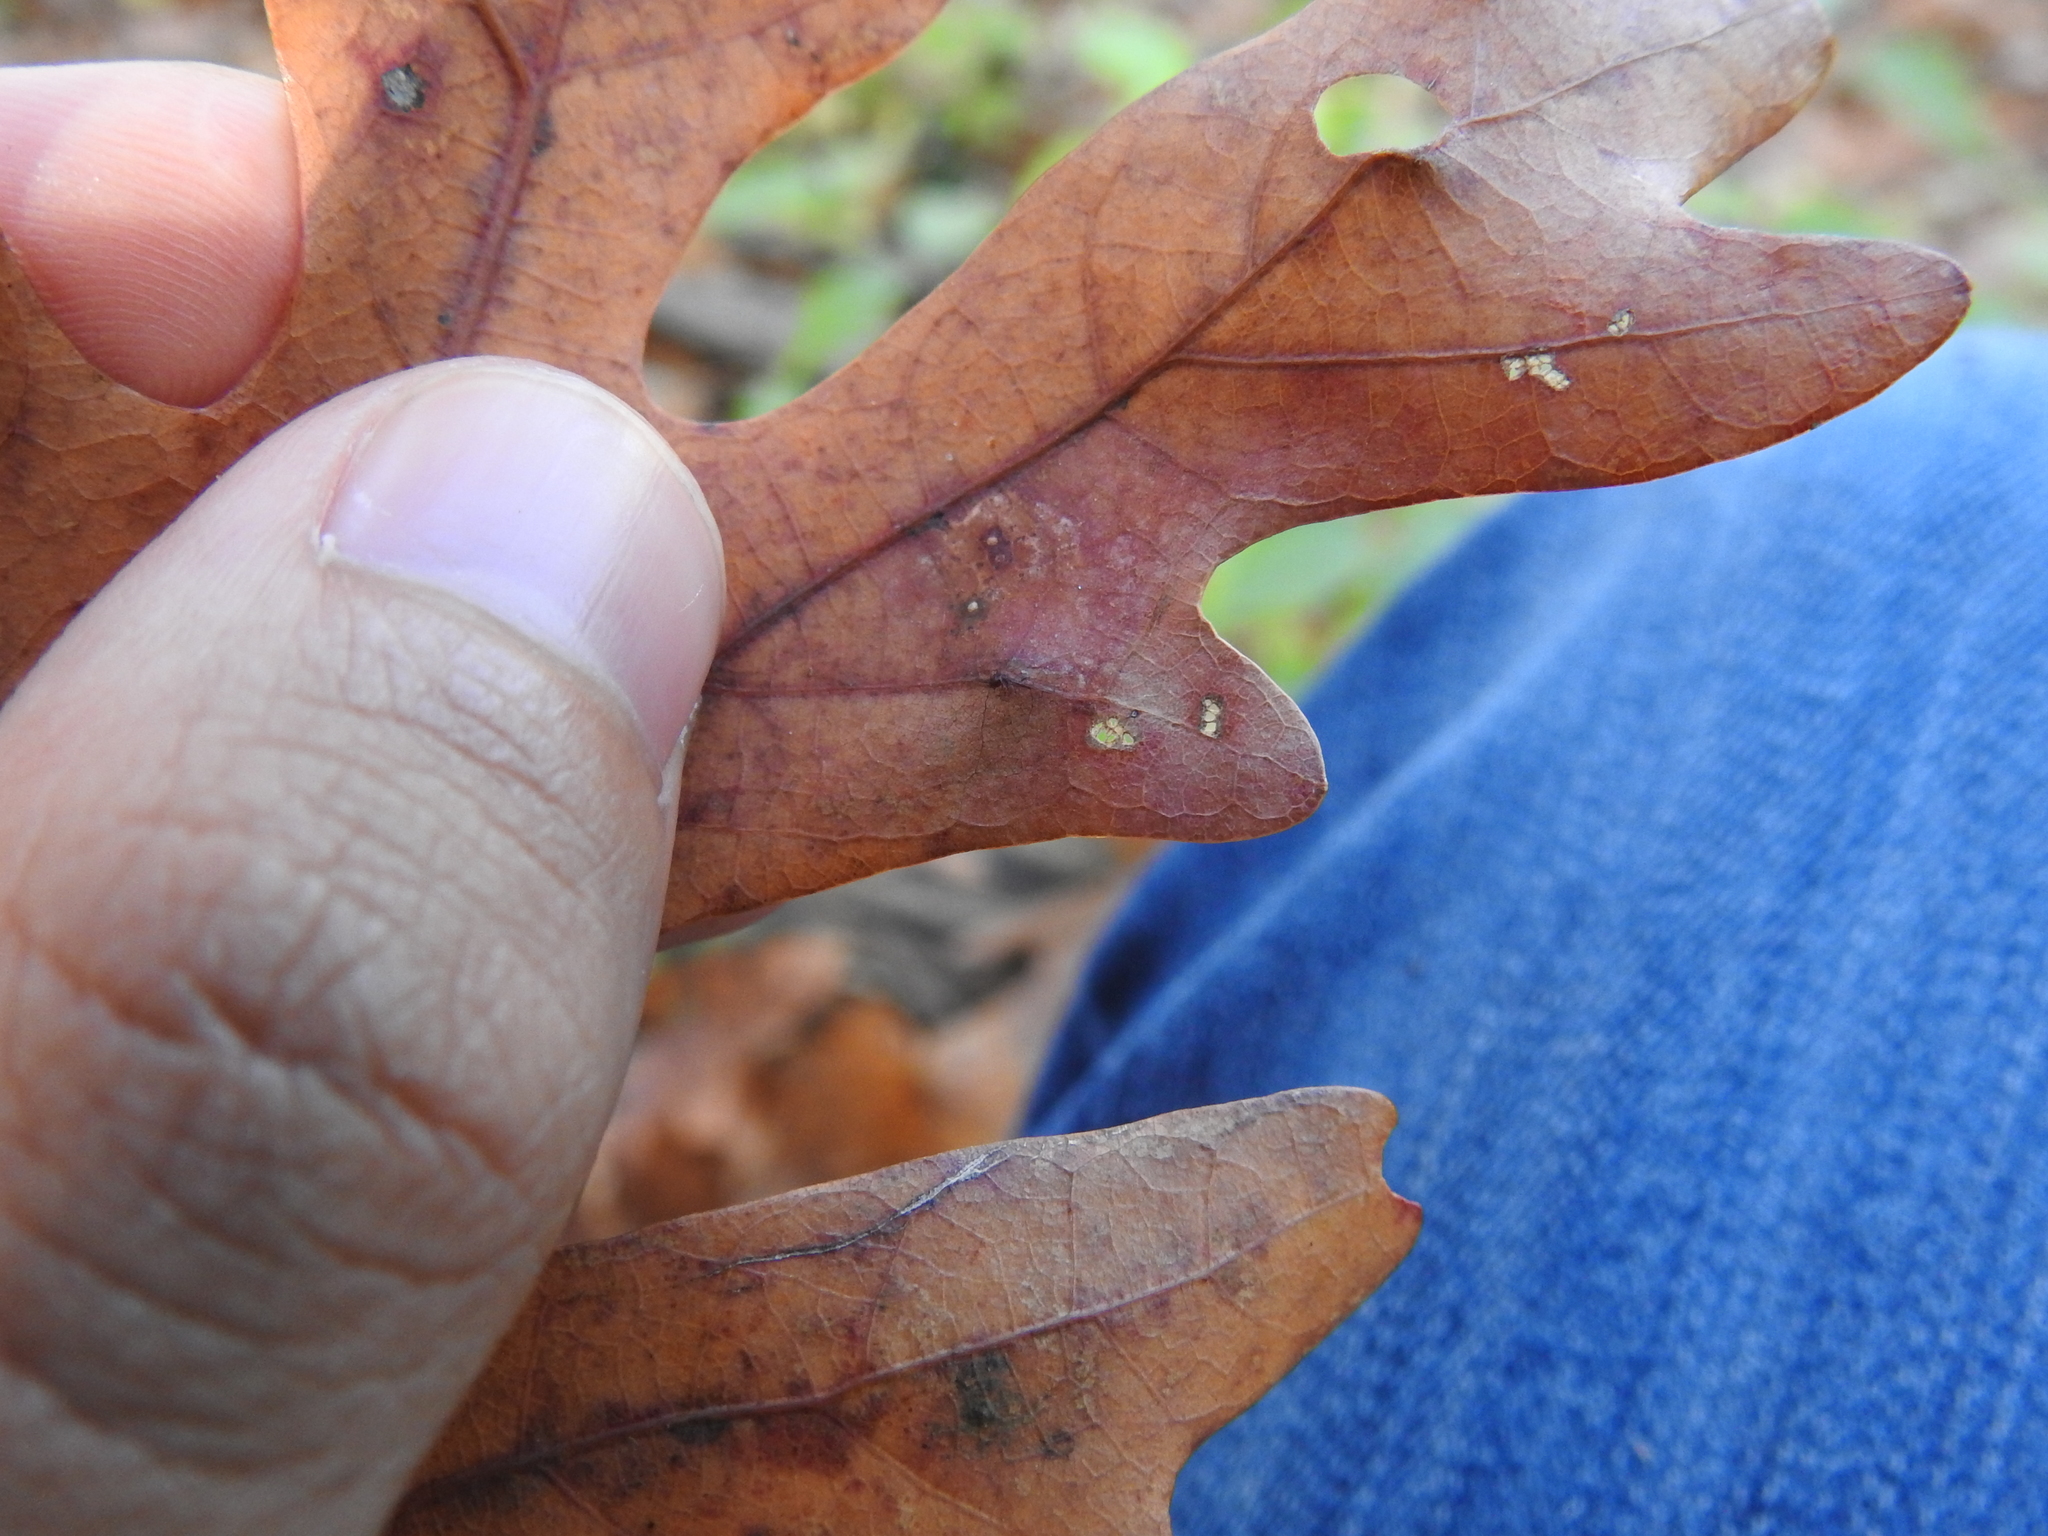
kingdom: Animalia
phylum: Arthropoda
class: Insecta
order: Hymenoptera
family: Cynipidae
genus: Philonix
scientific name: Philonix fulvicollis
